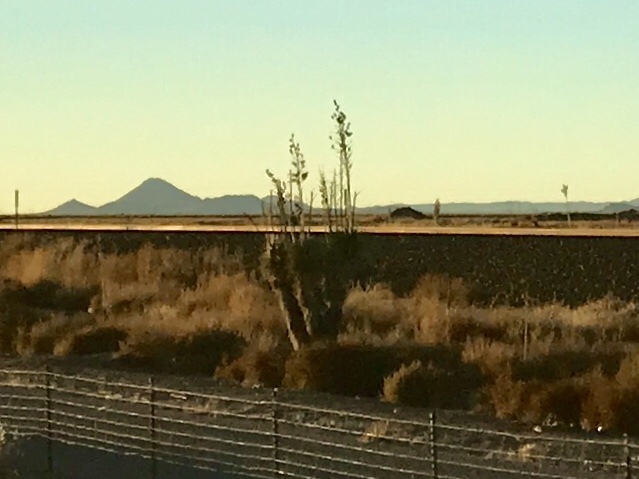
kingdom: Plantae
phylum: Tracheophyta
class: Liliopsida
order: Asparagales
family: Asparagaceae
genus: Yucca
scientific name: Yucca elata
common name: Palmella
